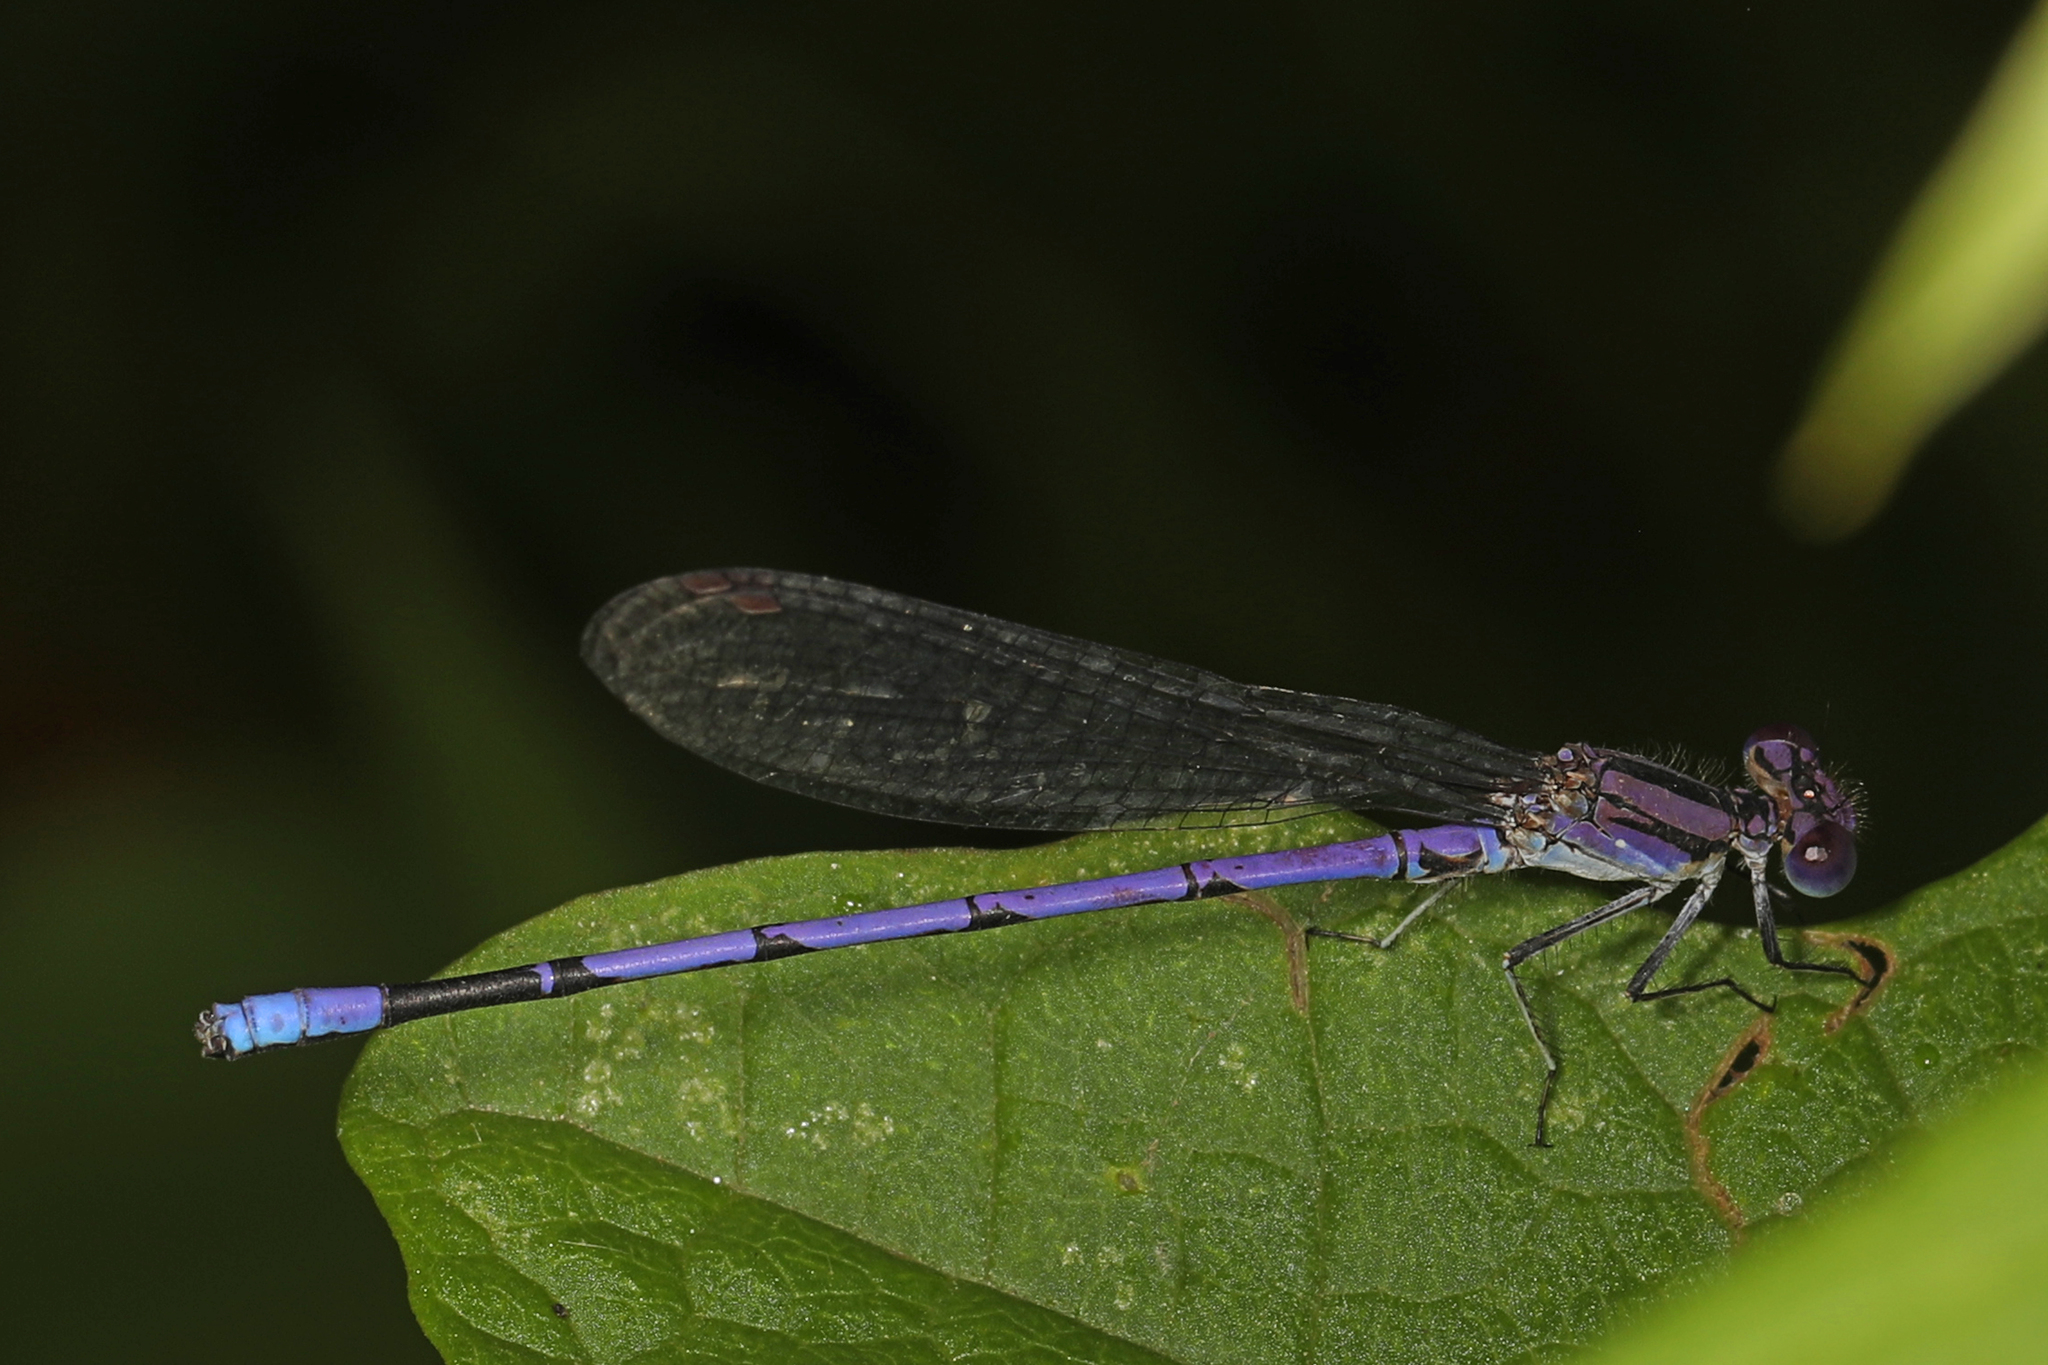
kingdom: Animalia
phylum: Arthropoda
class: Insecta
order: Odonata
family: Coenagrionidae
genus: Argia
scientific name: Argia fumipennis
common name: Variable dancer
